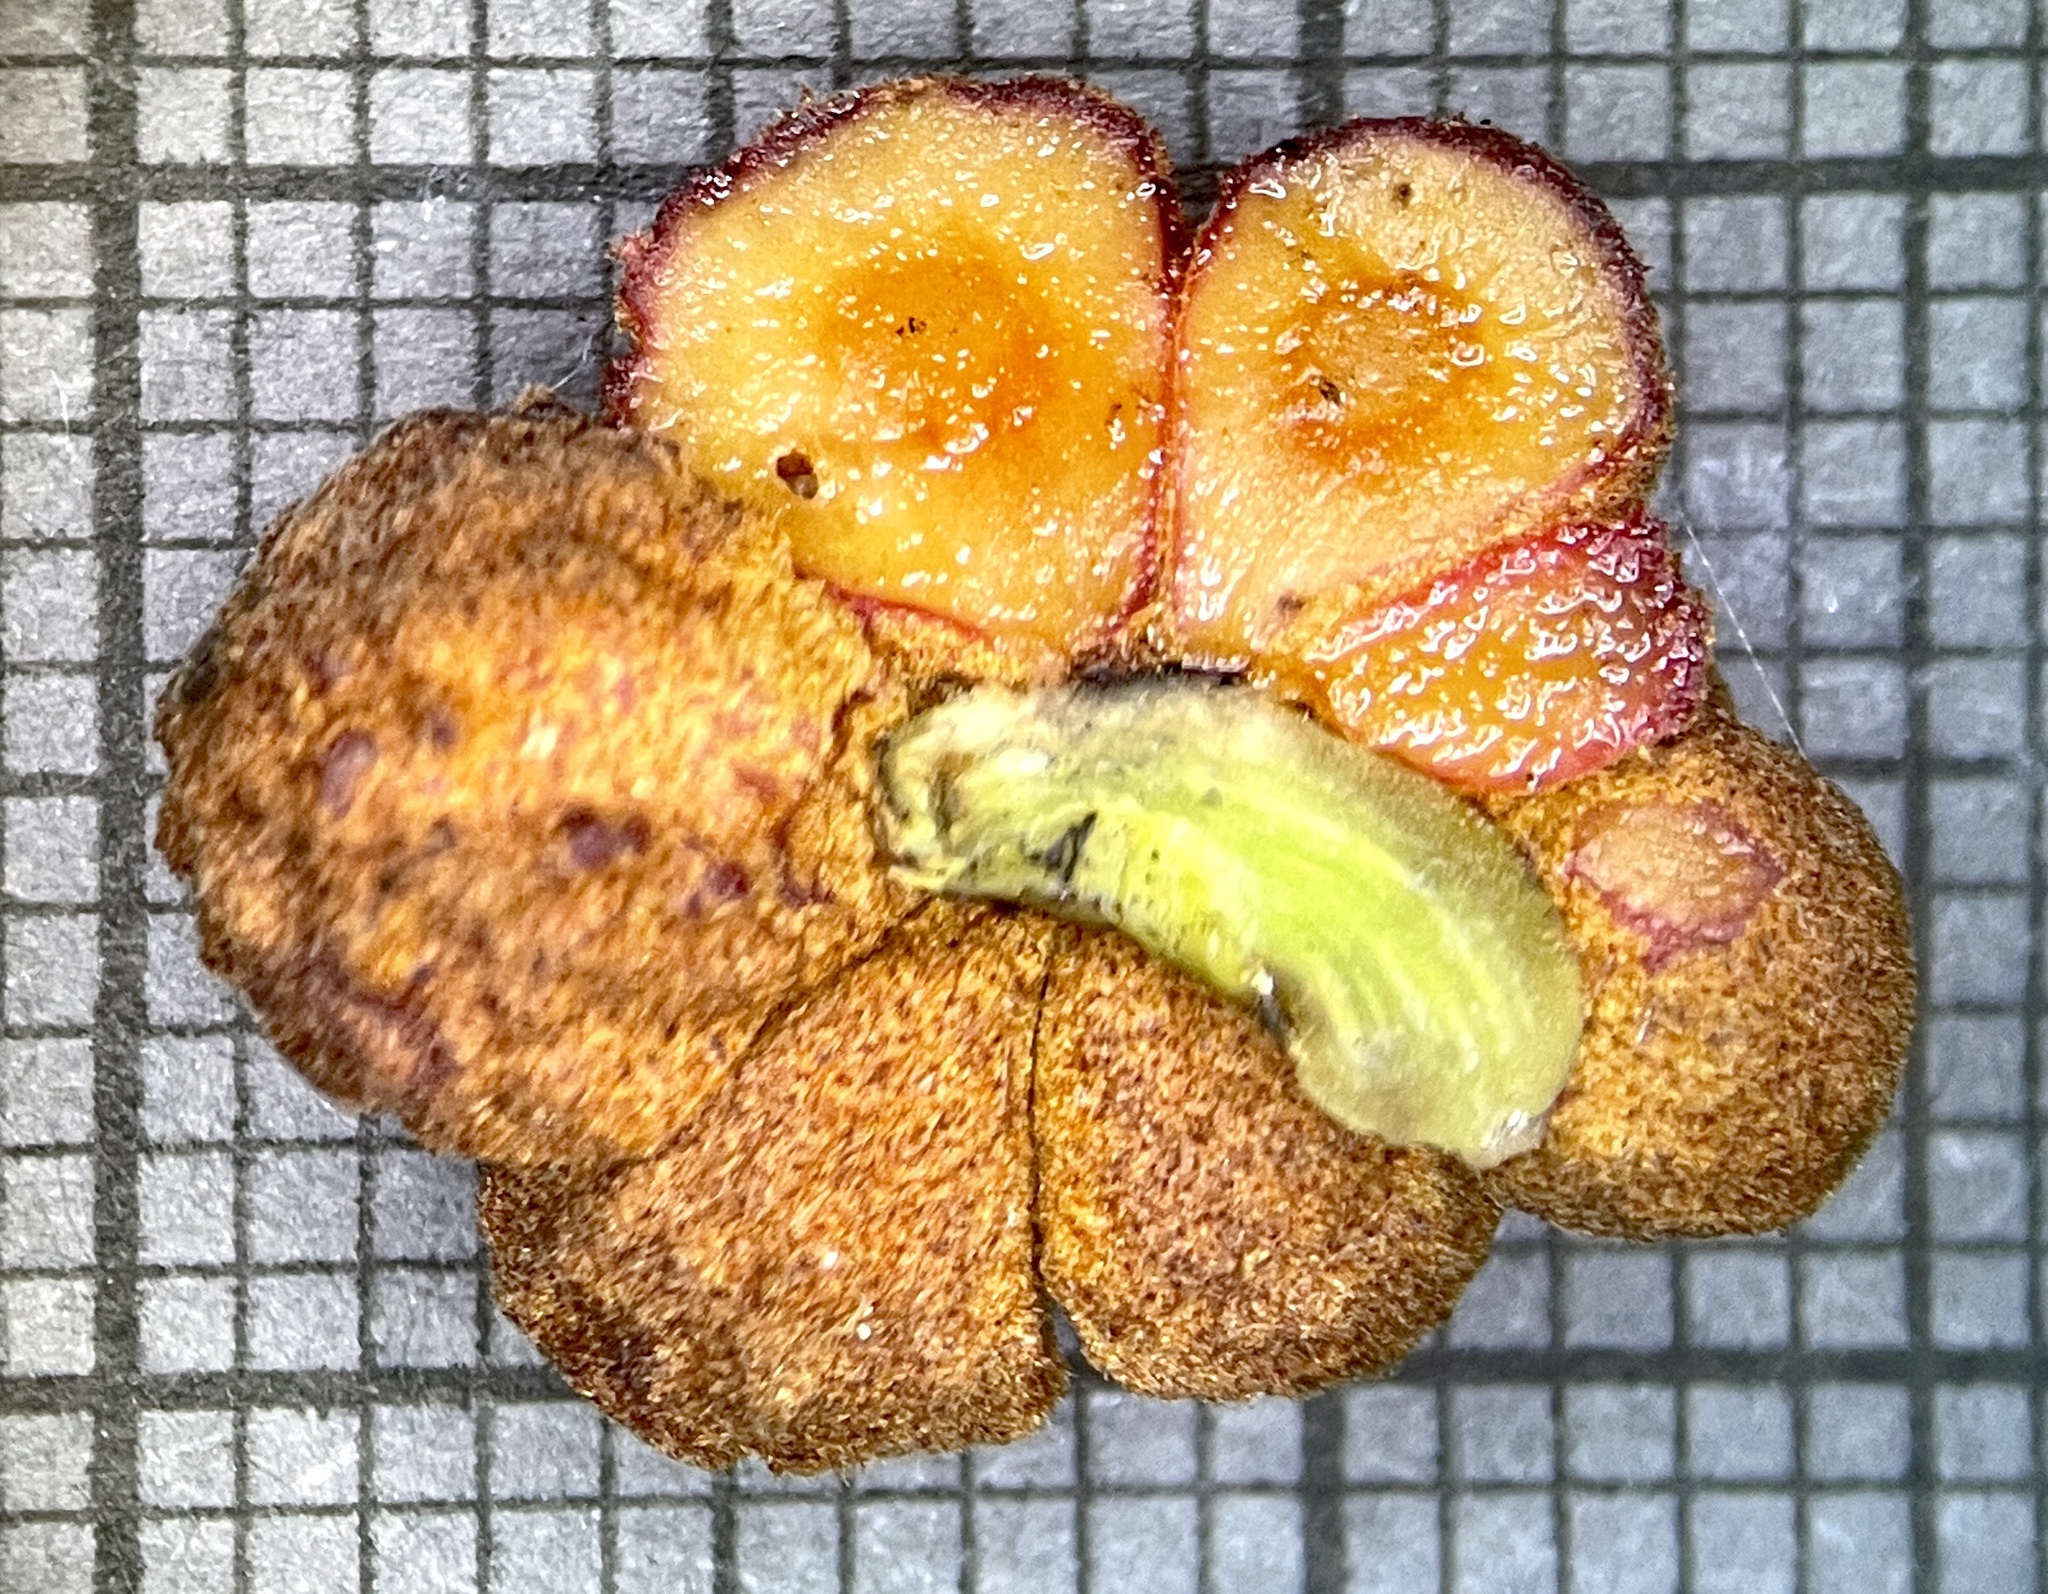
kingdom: Animalia
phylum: Arthropoda
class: Insecta
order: Hymenoptera
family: Cynipidae
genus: Andricus
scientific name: Andricus
